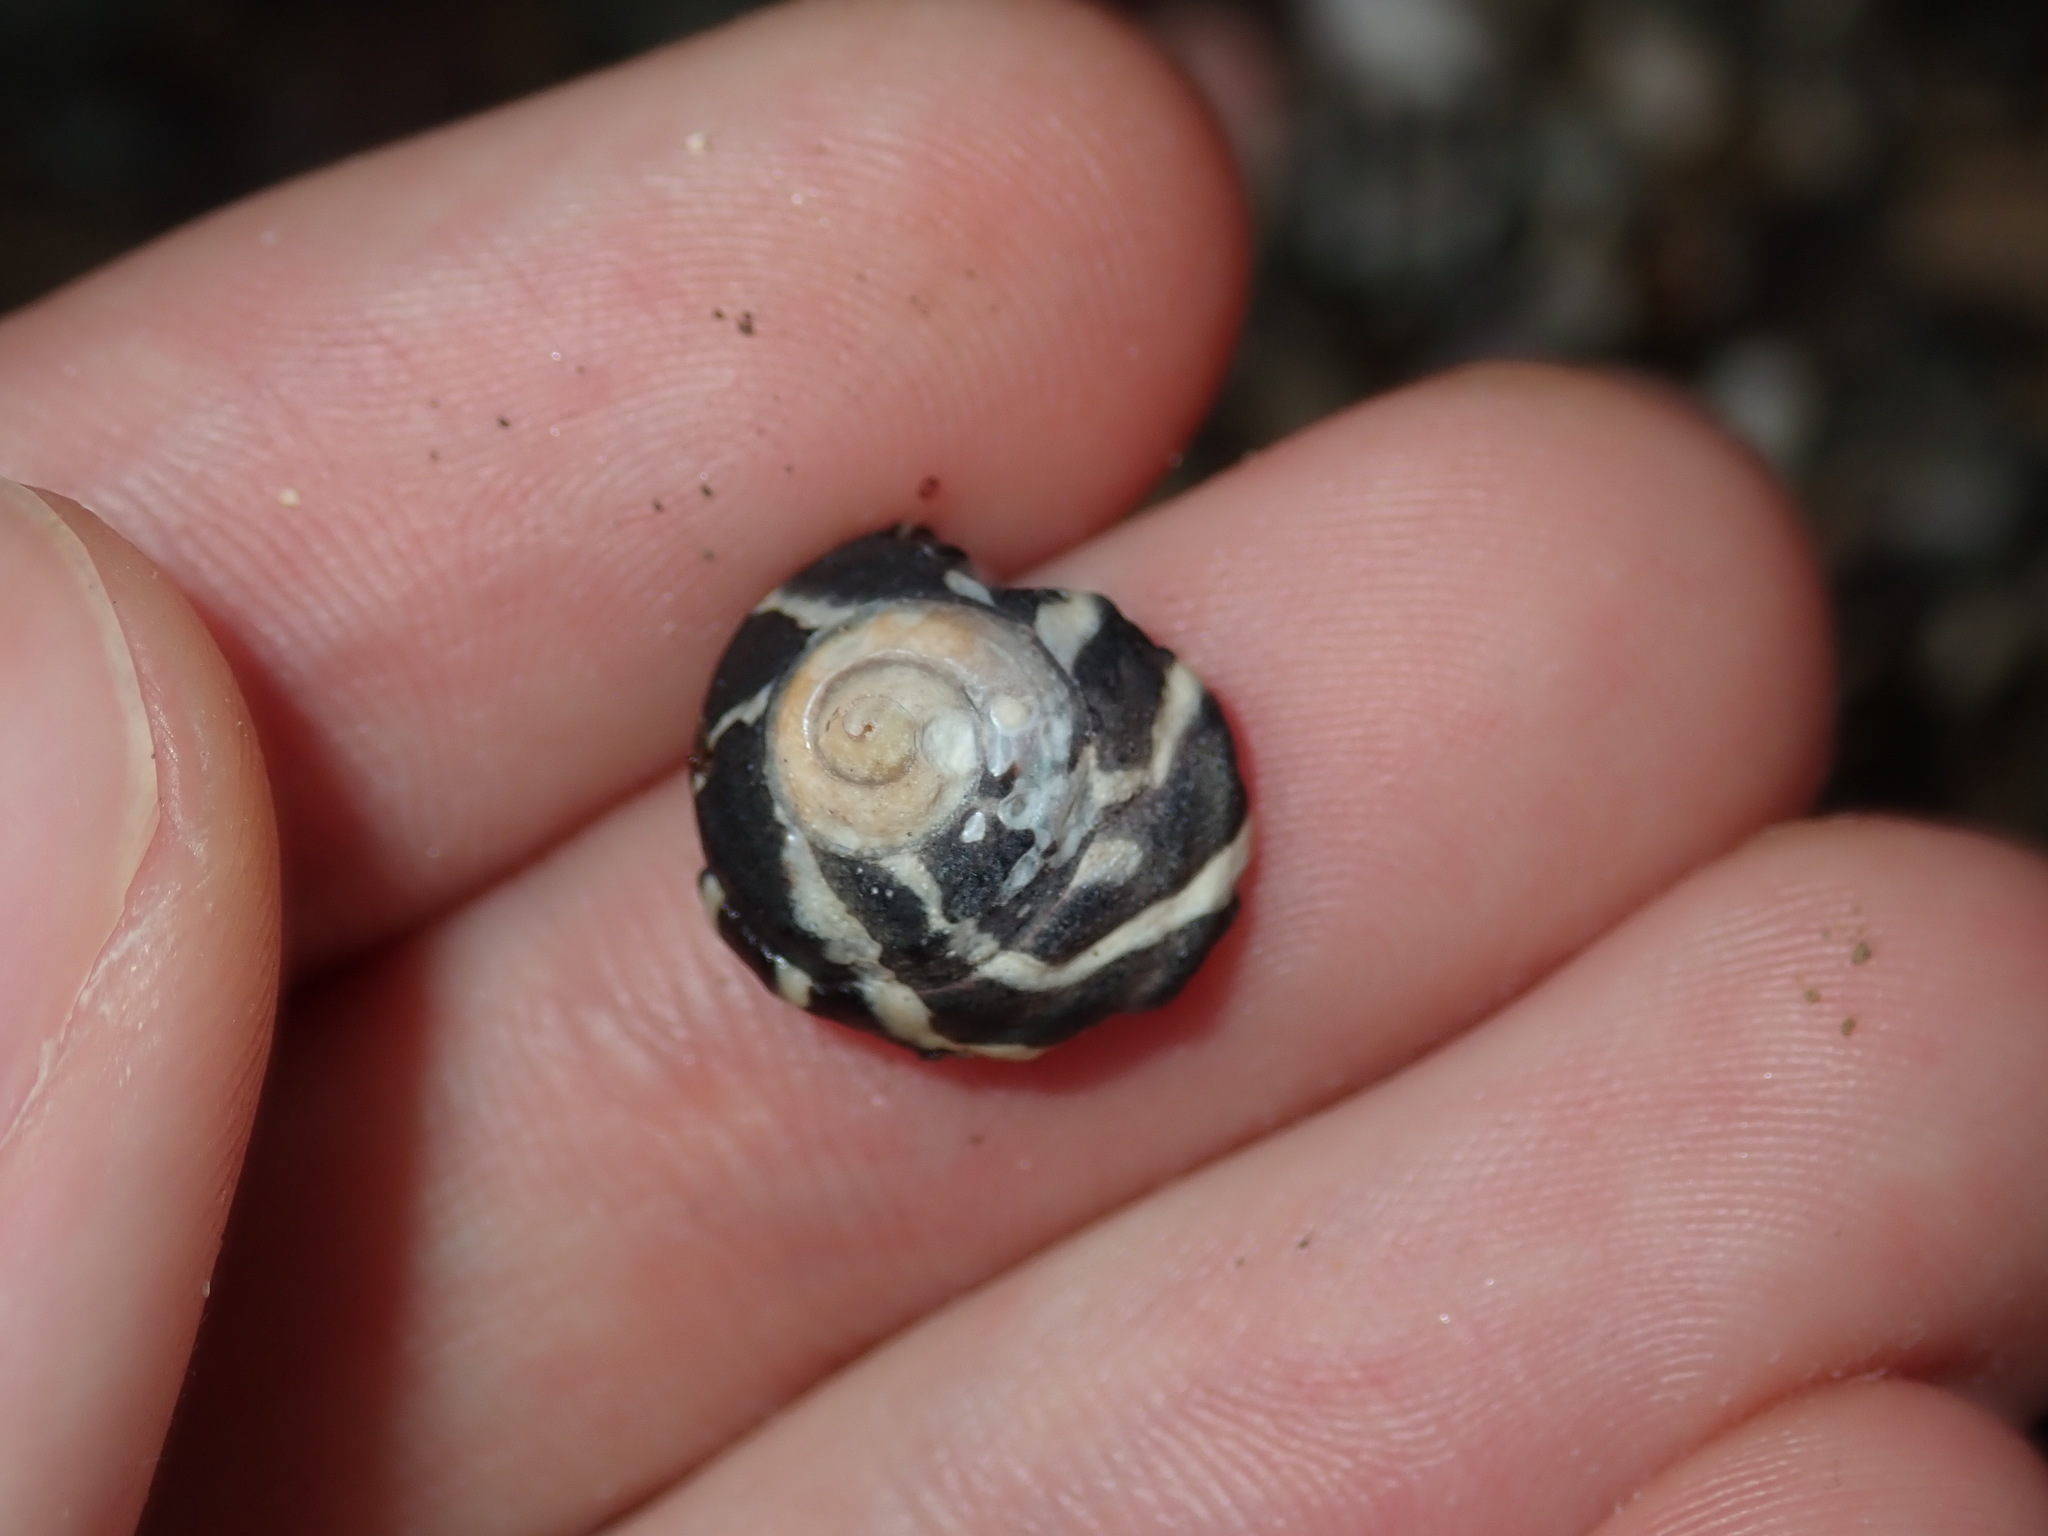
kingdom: Animalia
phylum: Mollusca
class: Gastropoda
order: Trochida
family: Trochidae
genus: Austrocochlea
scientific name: Austrocochlea porcata
